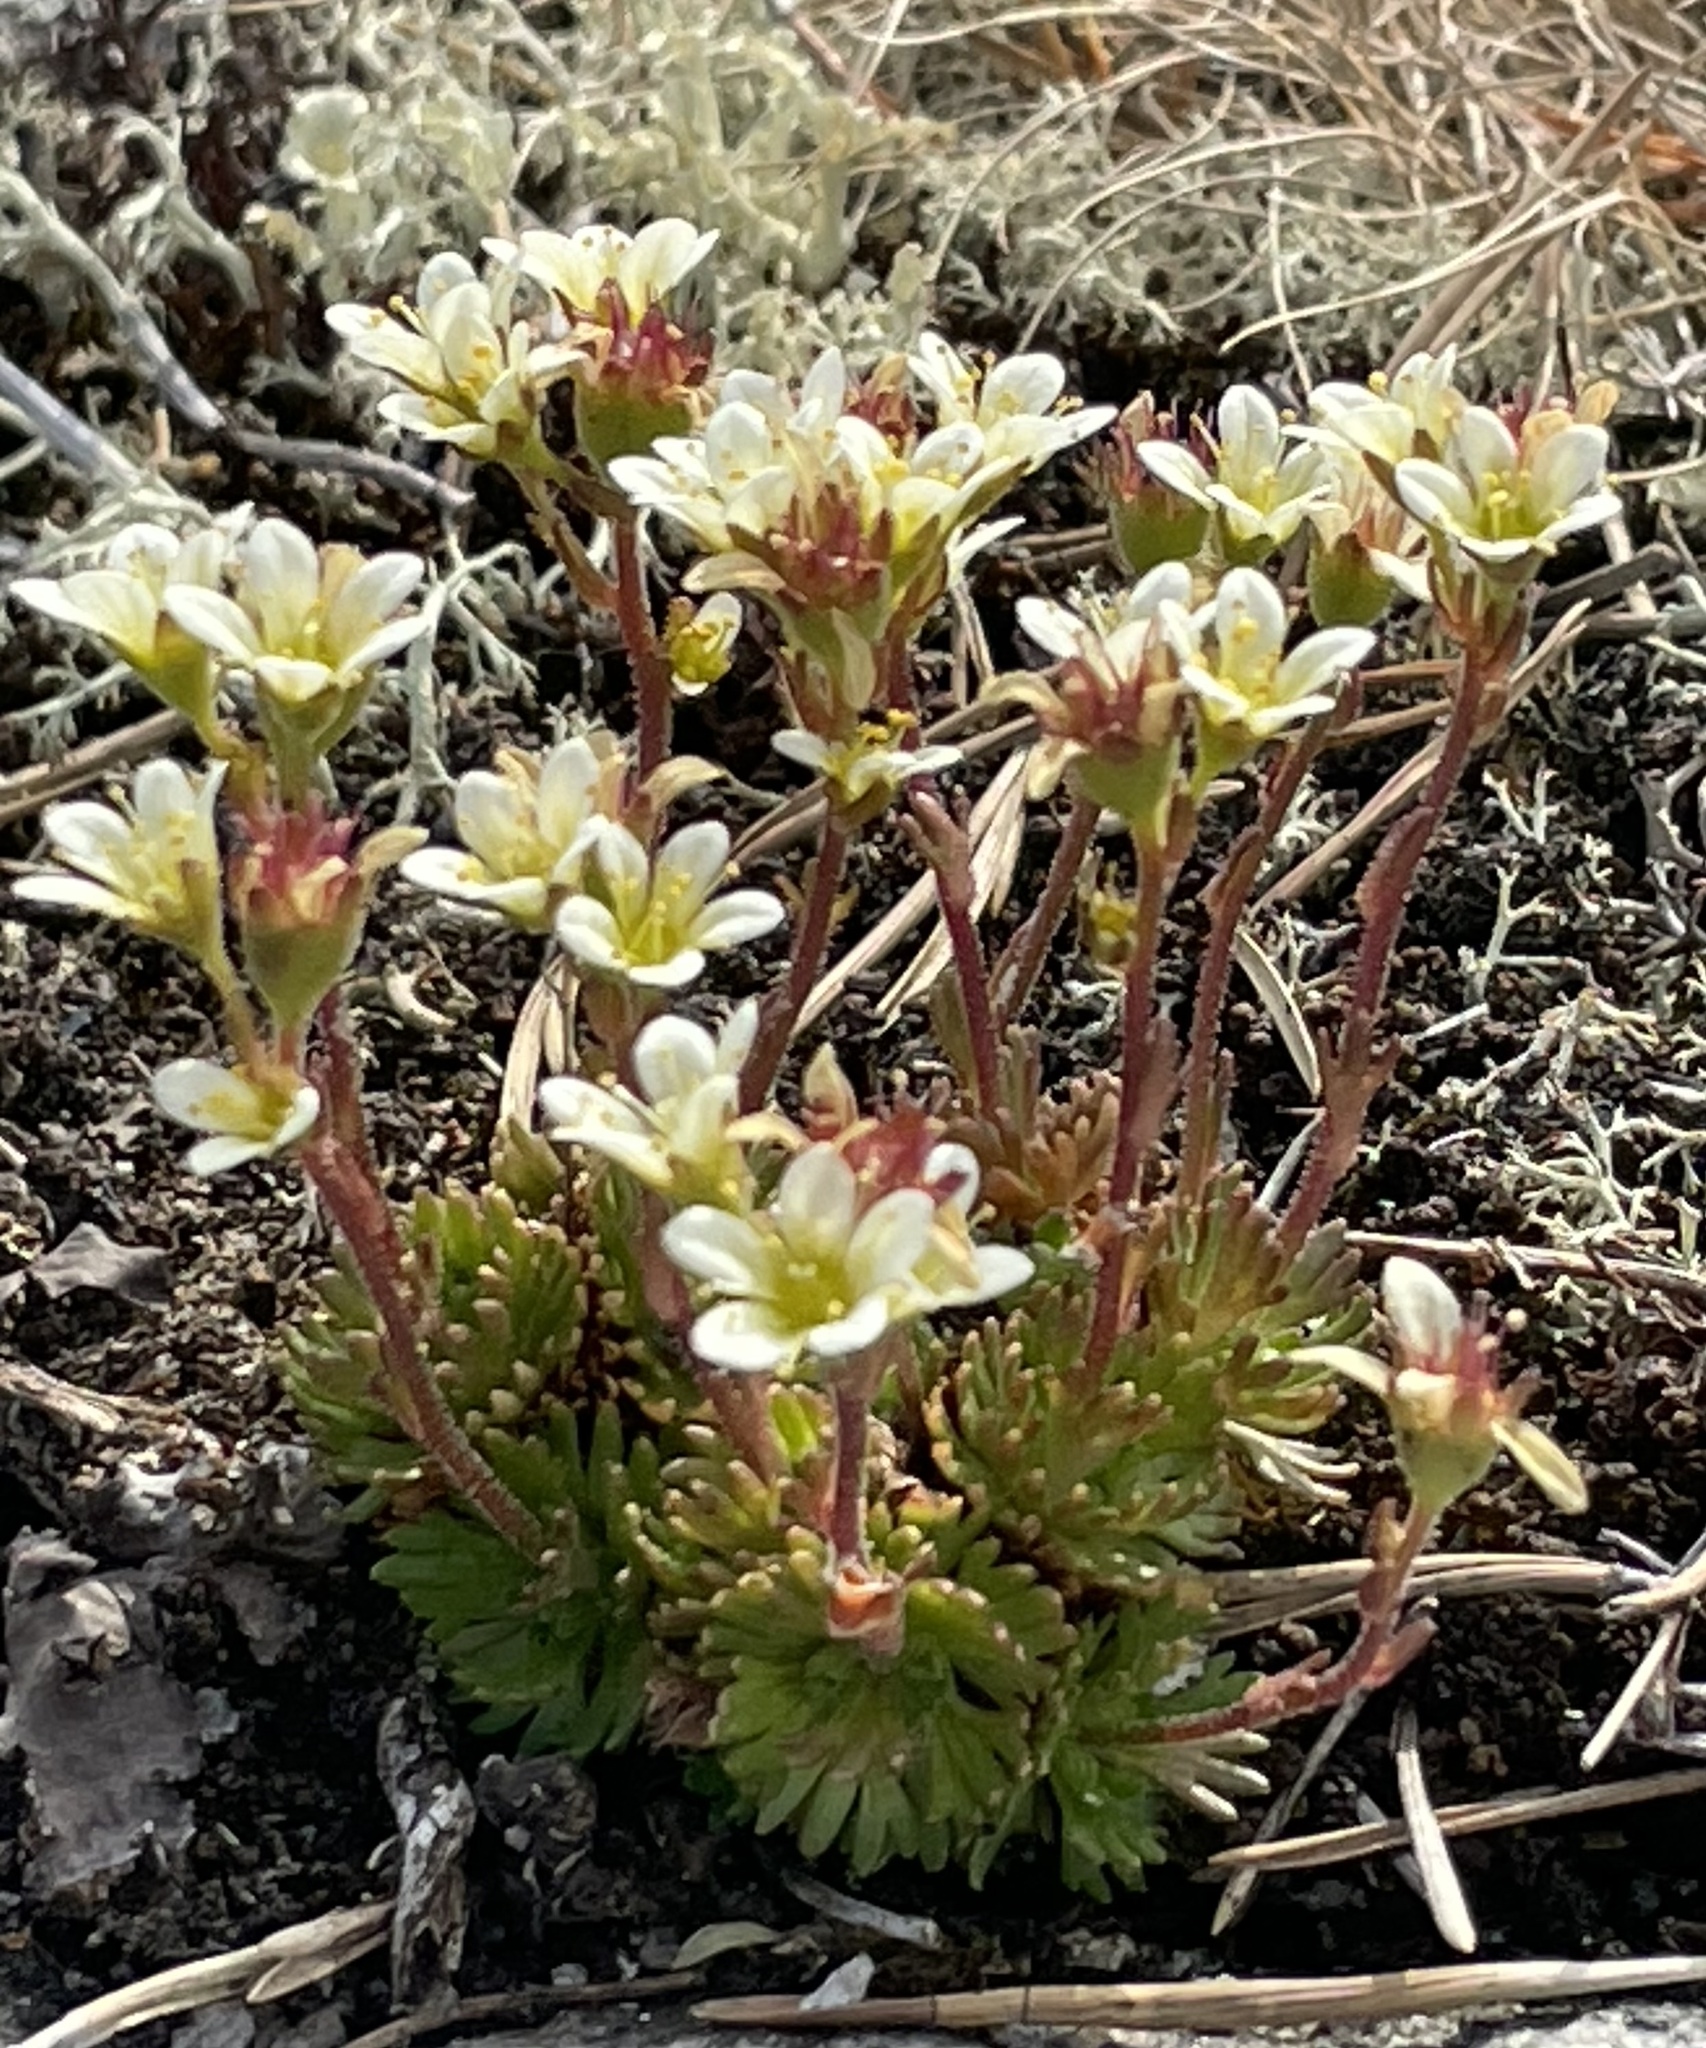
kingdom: Plantae
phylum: Tracheophyta
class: Magnoliopsida
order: Saxifragales
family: Saxifragaceae
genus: Saxifraga
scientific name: Saxifraga cespitosa
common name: Tufted saxifrage
